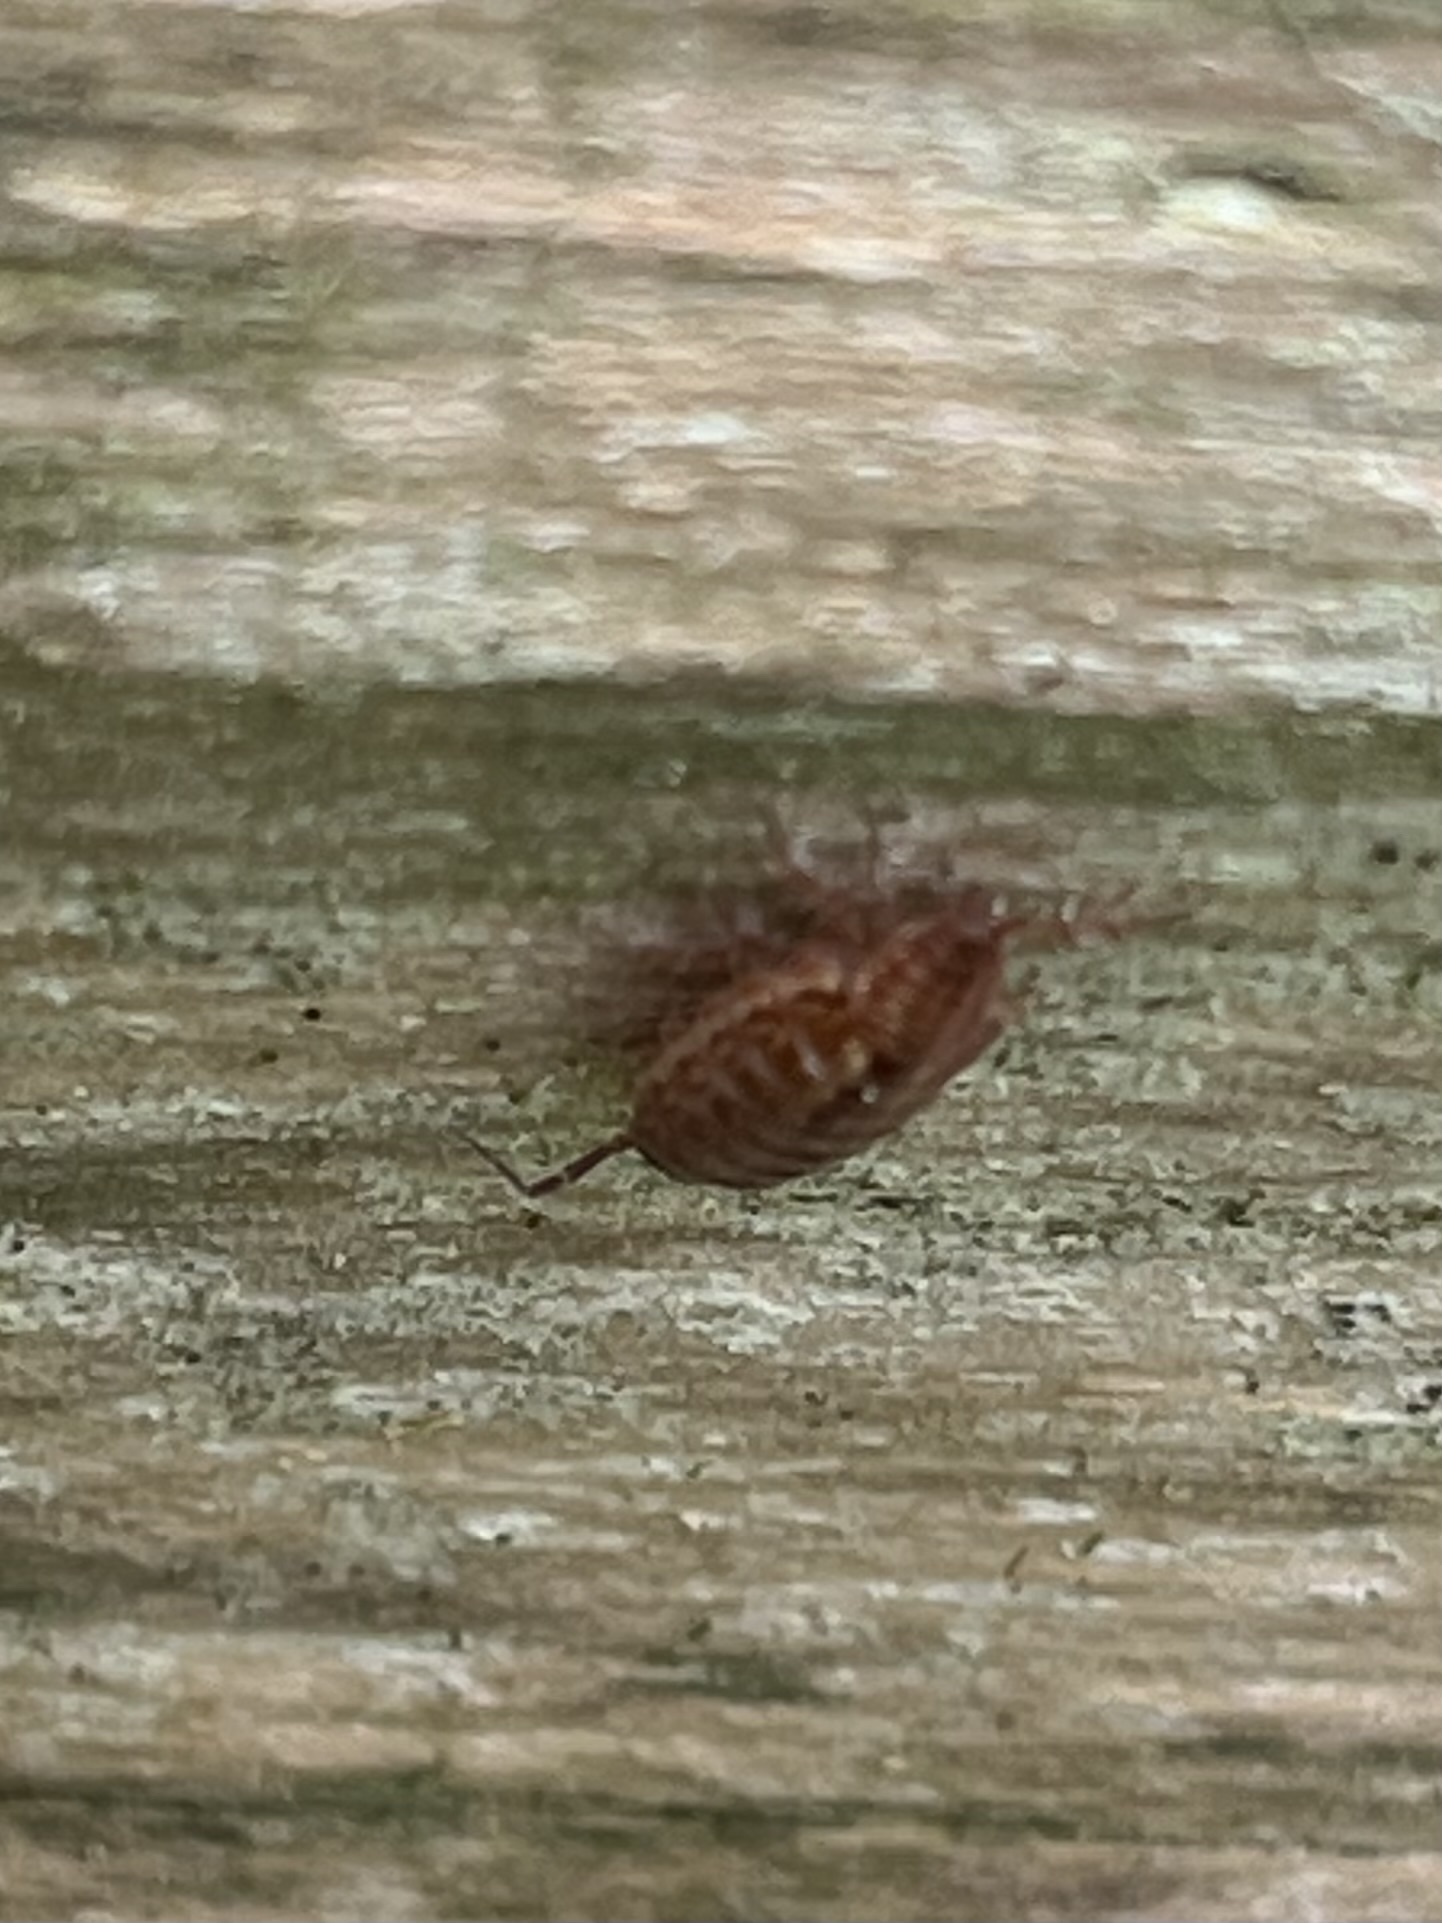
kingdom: Animalia
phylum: Arthropoda
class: Malacostraca
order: Isopoda
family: Philosciidae
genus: Philoscia
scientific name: Philoscia muscorum
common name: Common striped woodlouse
